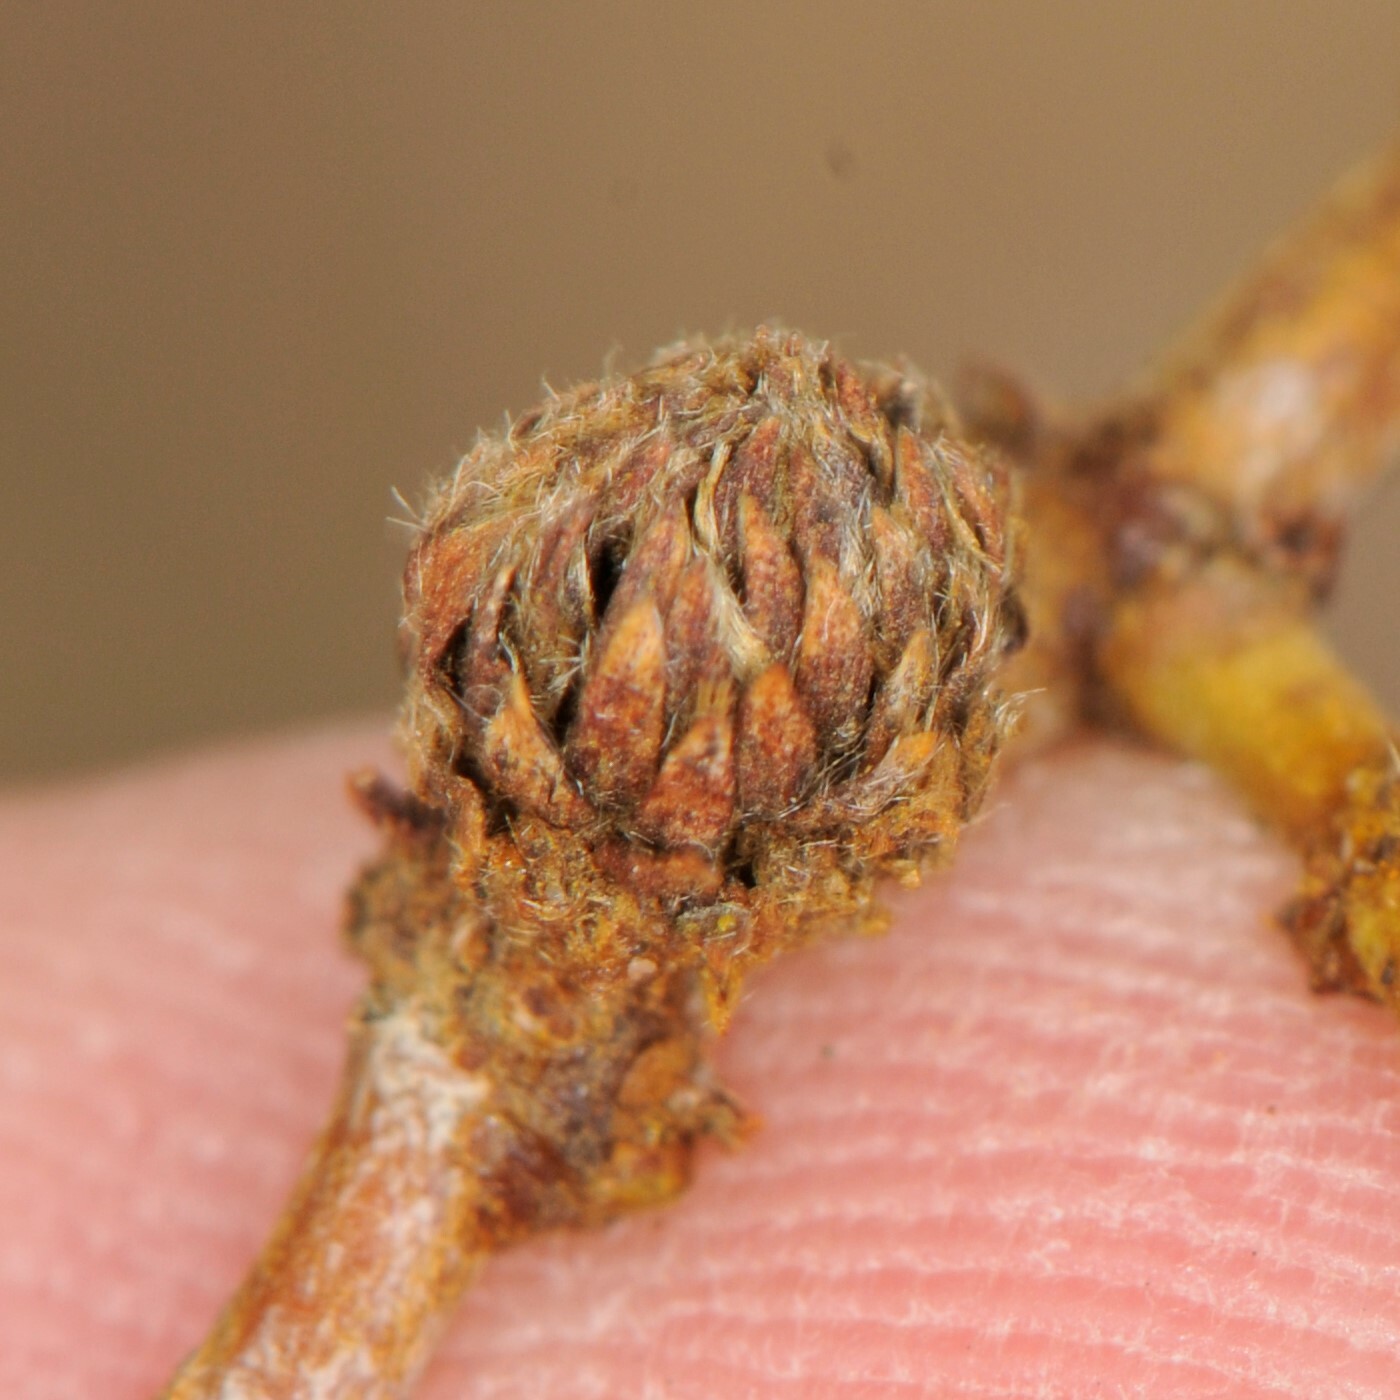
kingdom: Animalia
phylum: Arthropoda
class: Insecta
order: Diptera
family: Cecidomyiidae
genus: Asphondylia
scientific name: Asphondylia foliosa
